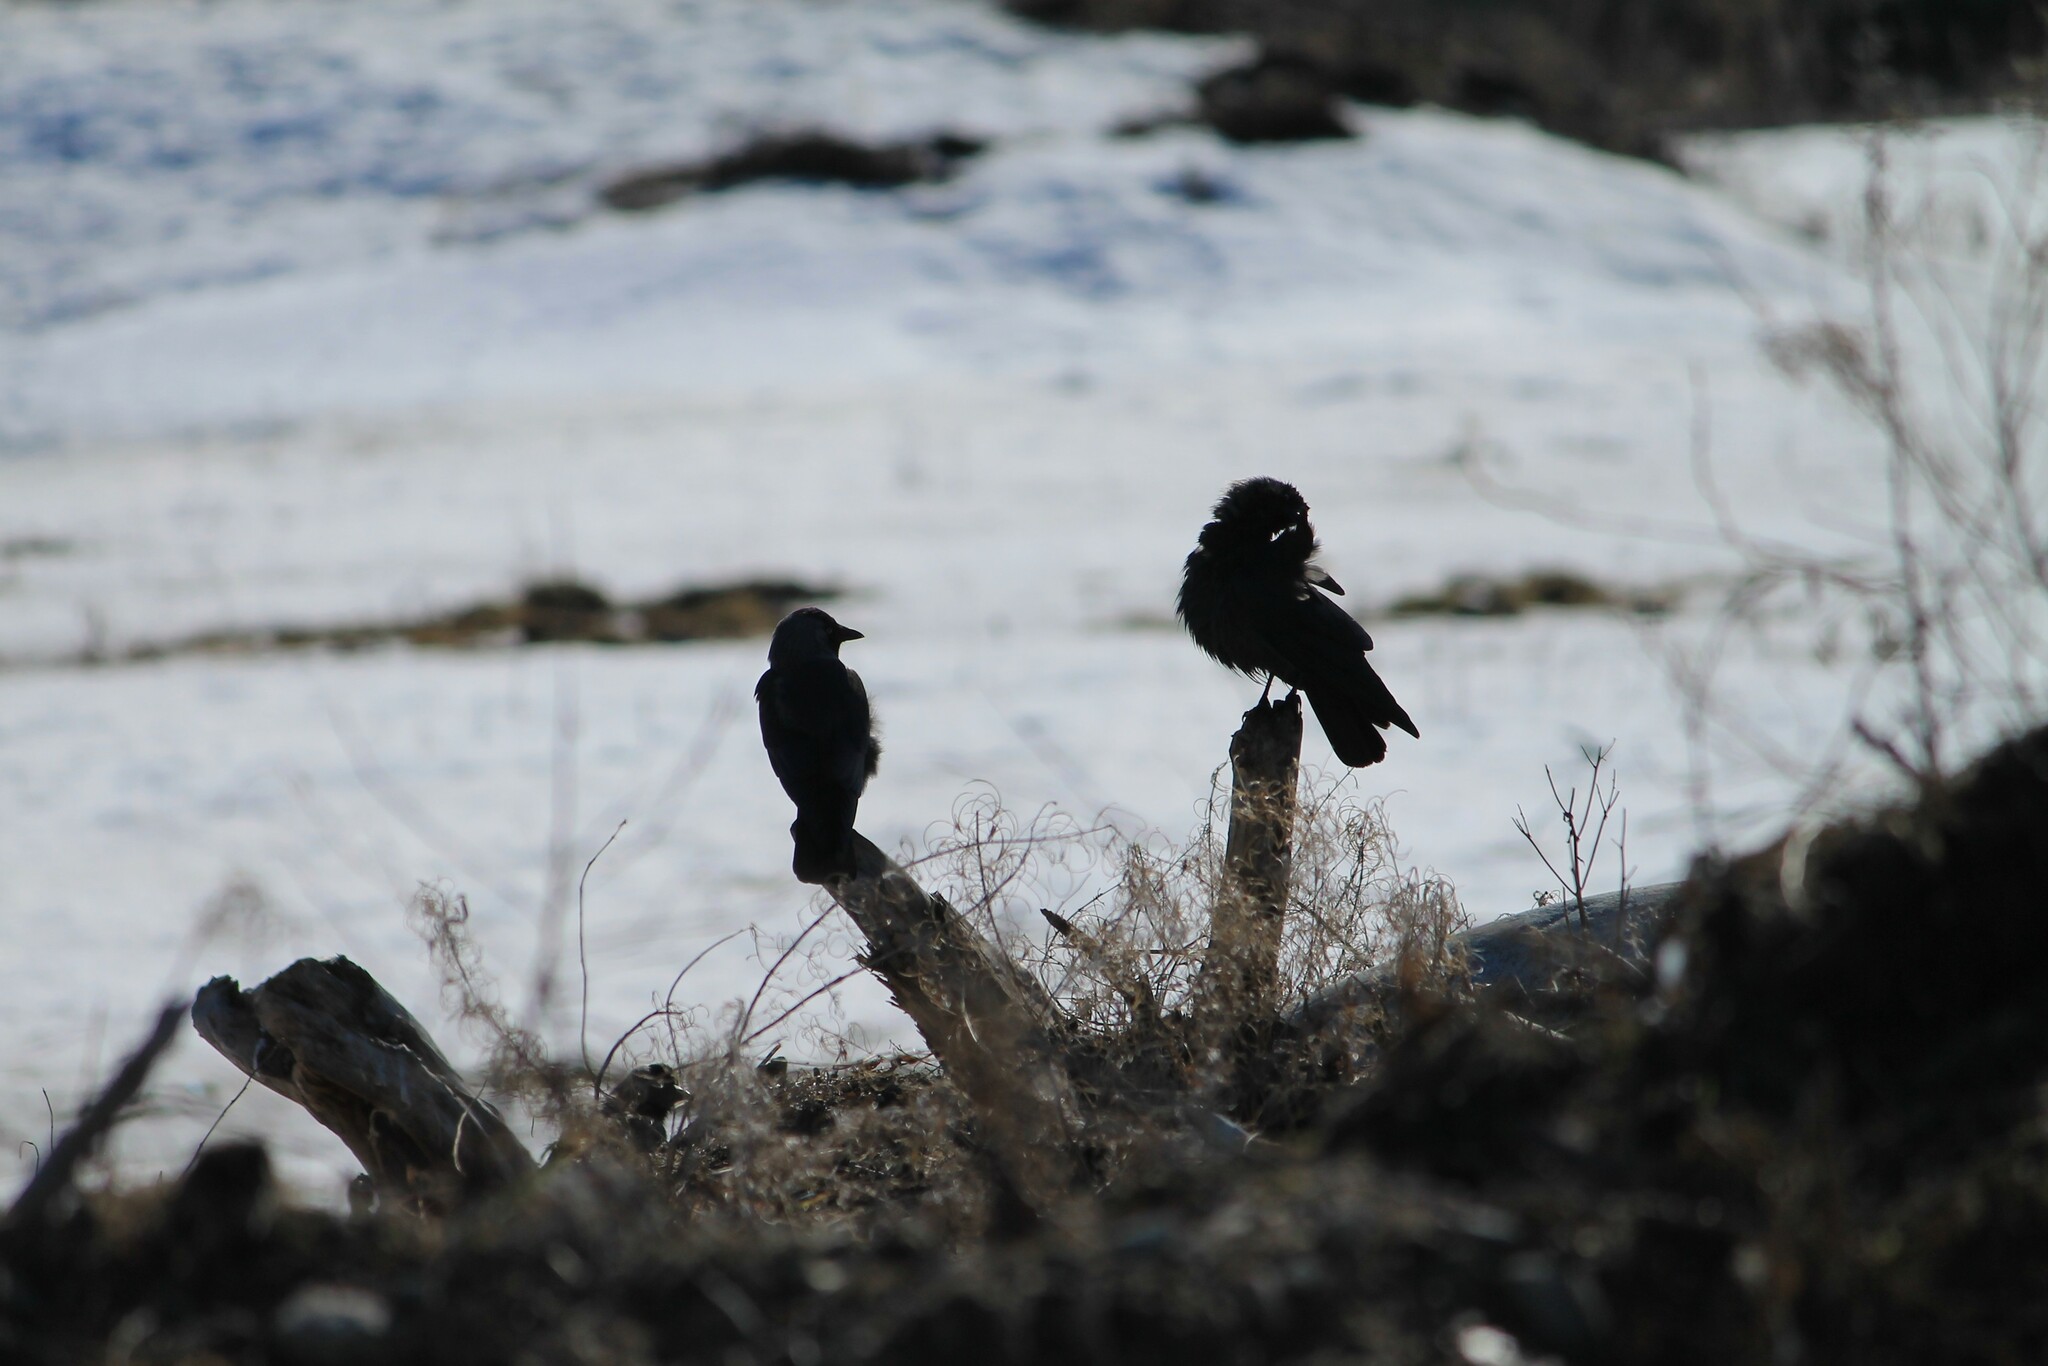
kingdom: Animalia
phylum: Chordata
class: Aves
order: Passeriformes
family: Corvidae
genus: Coloeus
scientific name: Coloeus monedula
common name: Western jackdaw
